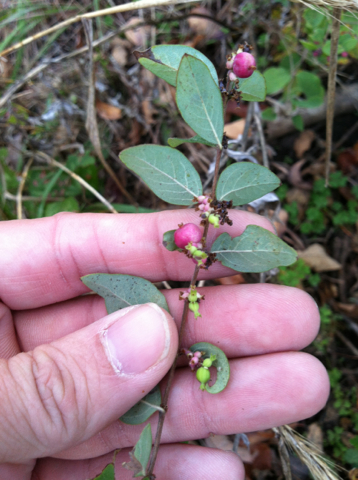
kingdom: Plantae
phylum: Tracheophyta
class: Magnoliopsida
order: Dipsacales
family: Caprifoliaceae
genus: Symphoricarpos
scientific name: Symphoricarpos orbiculatus
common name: Coralberry
